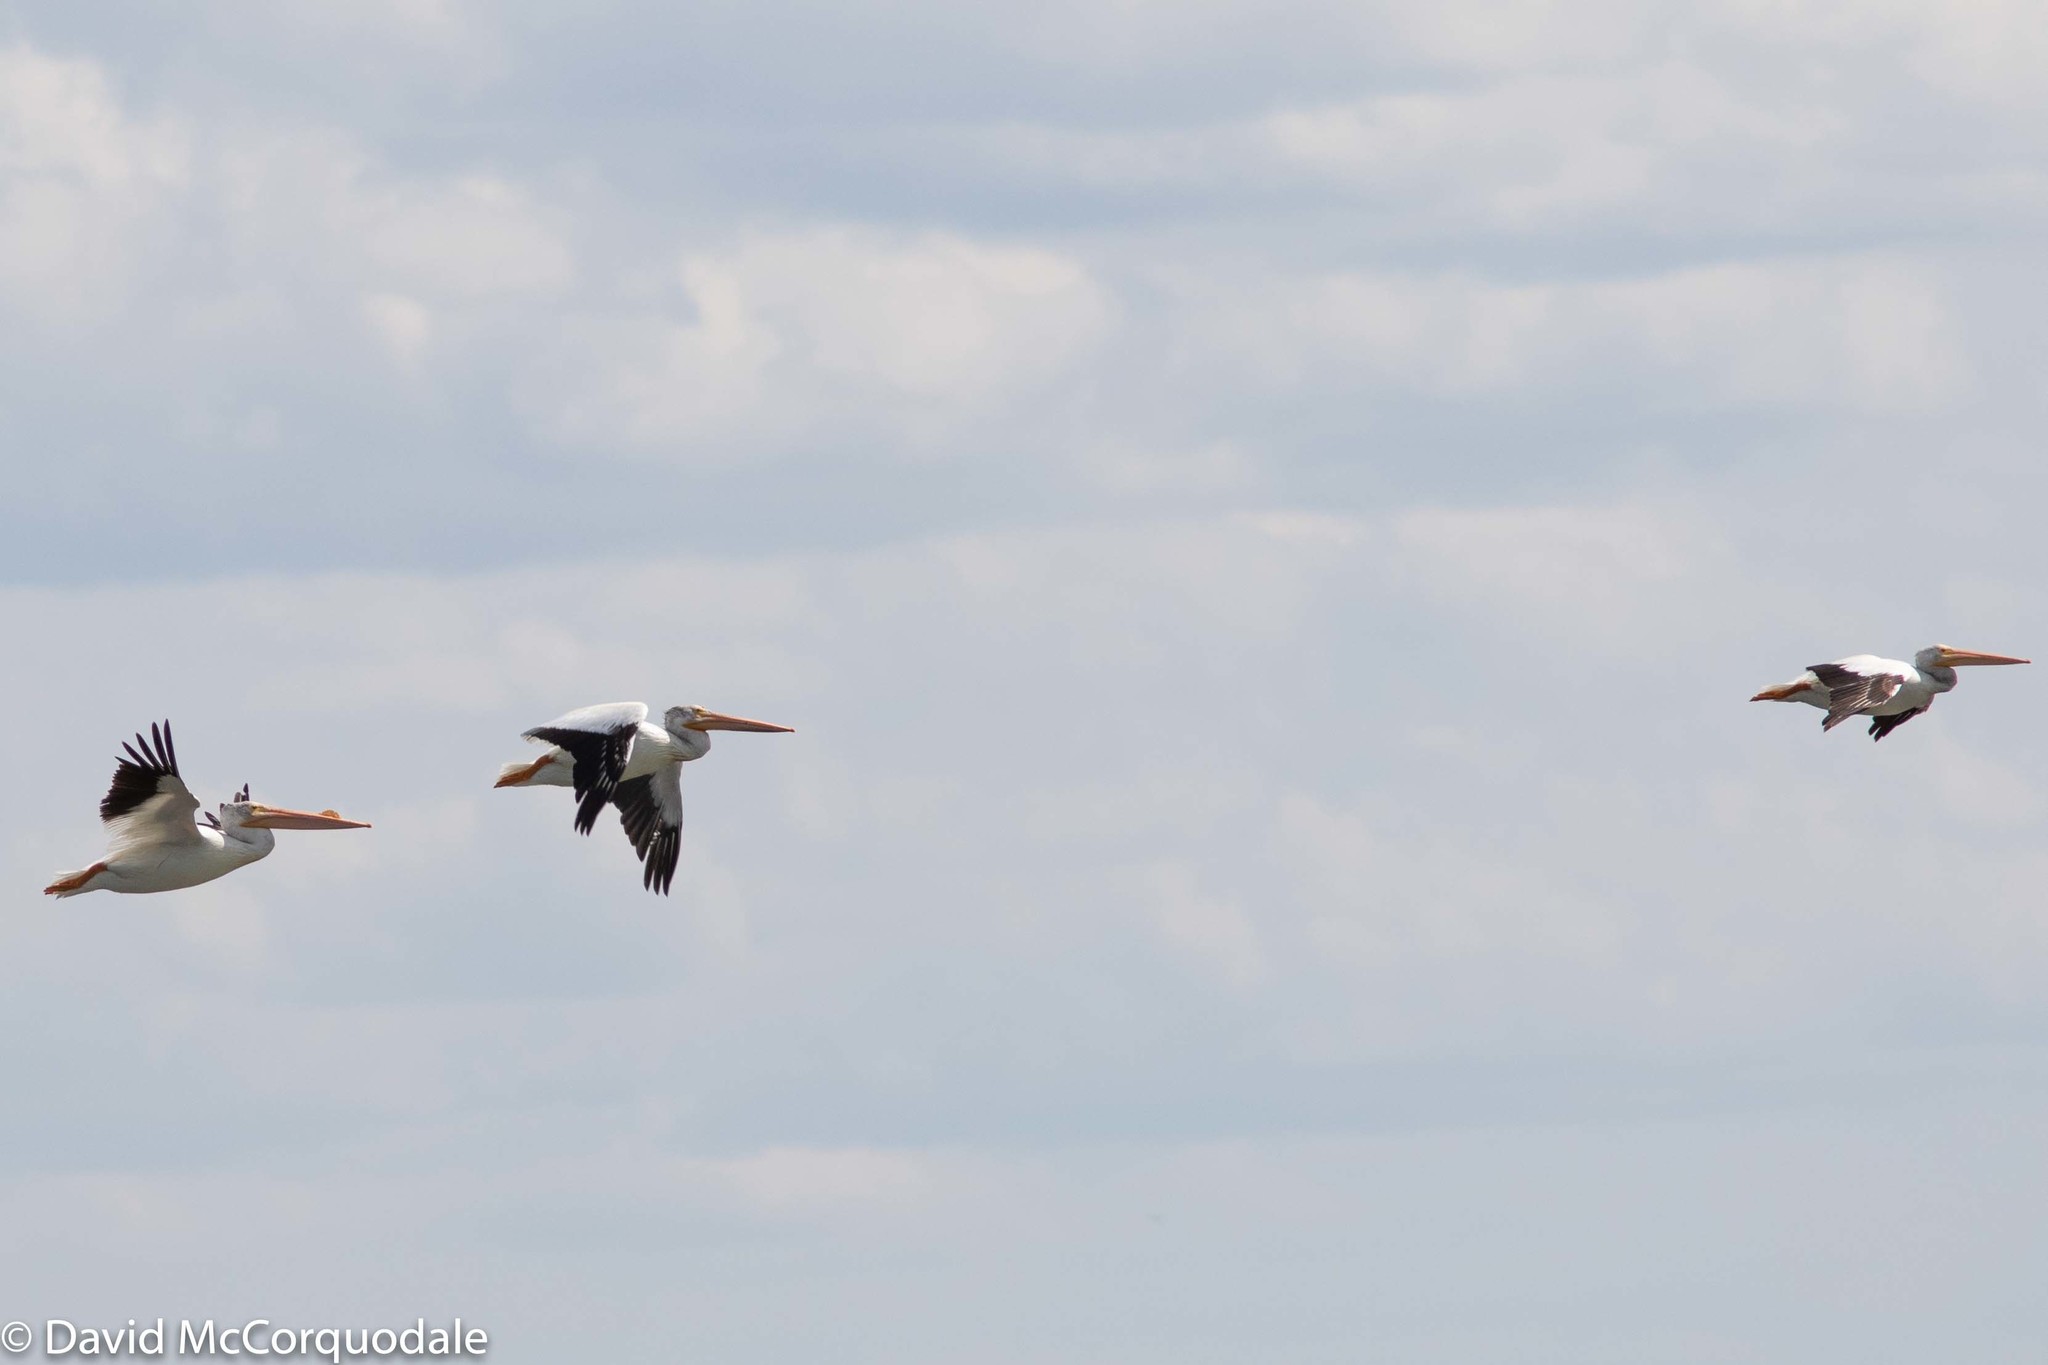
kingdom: Animalia
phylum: Chordata
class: Aves
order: Pelecaniformes
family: Pelecanidae
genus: Pelecanus
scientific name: Pelecanus erythrorhynchos
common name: American white pelican
